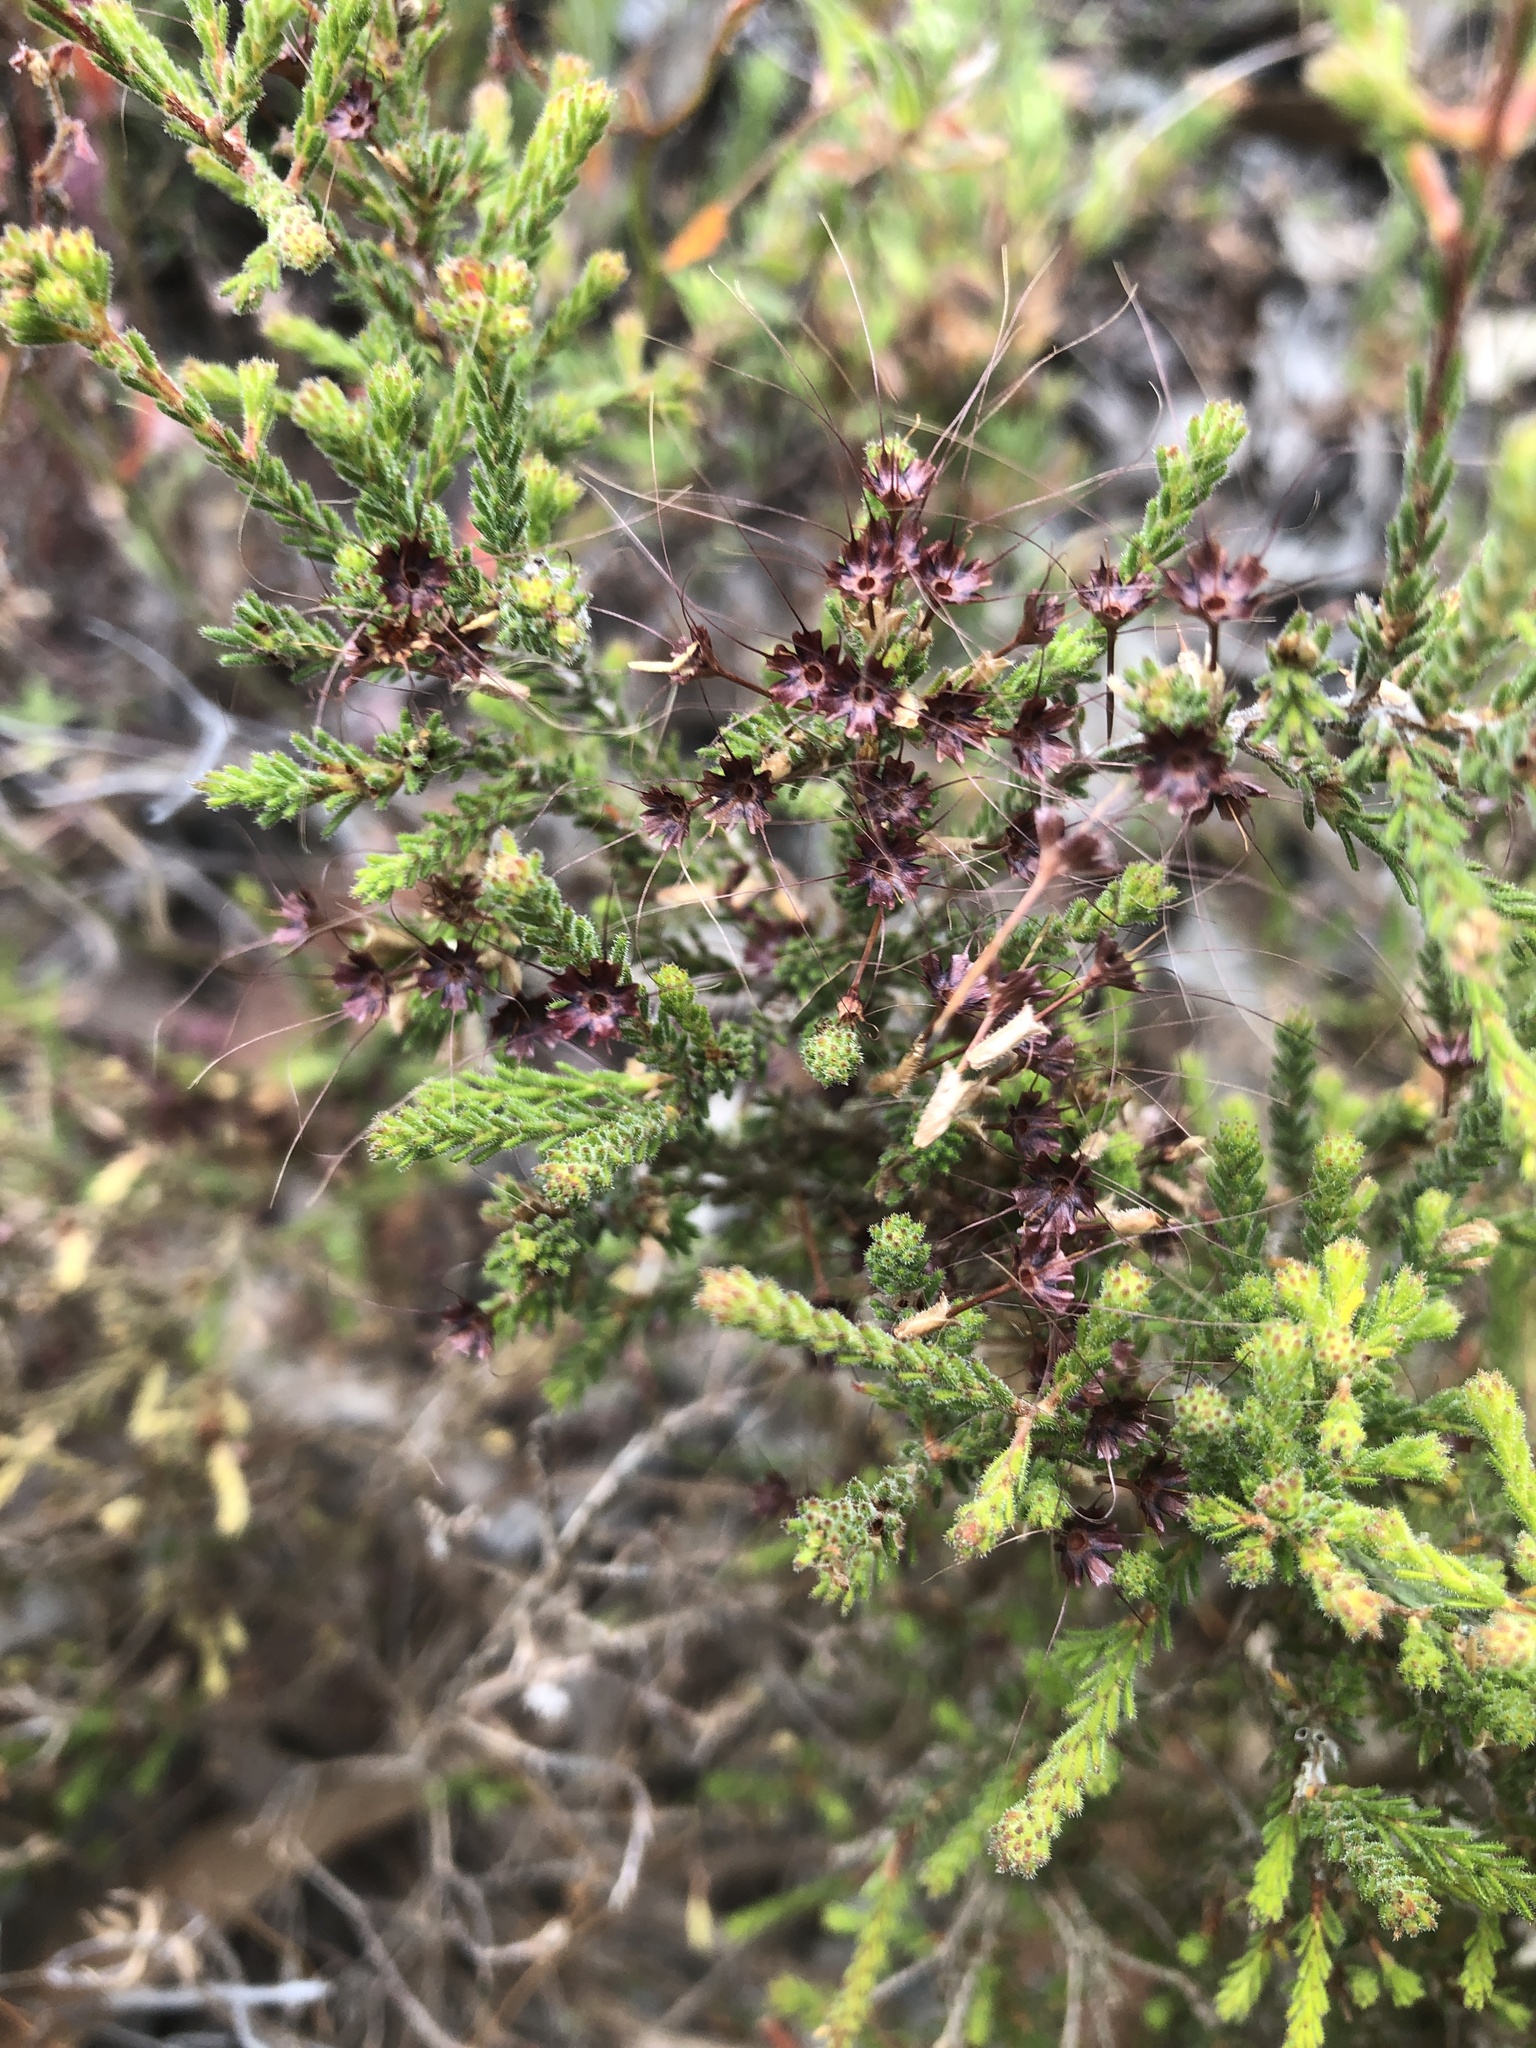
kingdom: Plantae
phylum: Tracheophyta
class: Magnoliopsida
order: Myrtales
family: Myrtaceae
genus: Calytrix
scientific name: Calytrix tetragona
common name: Common fringe myrtle
